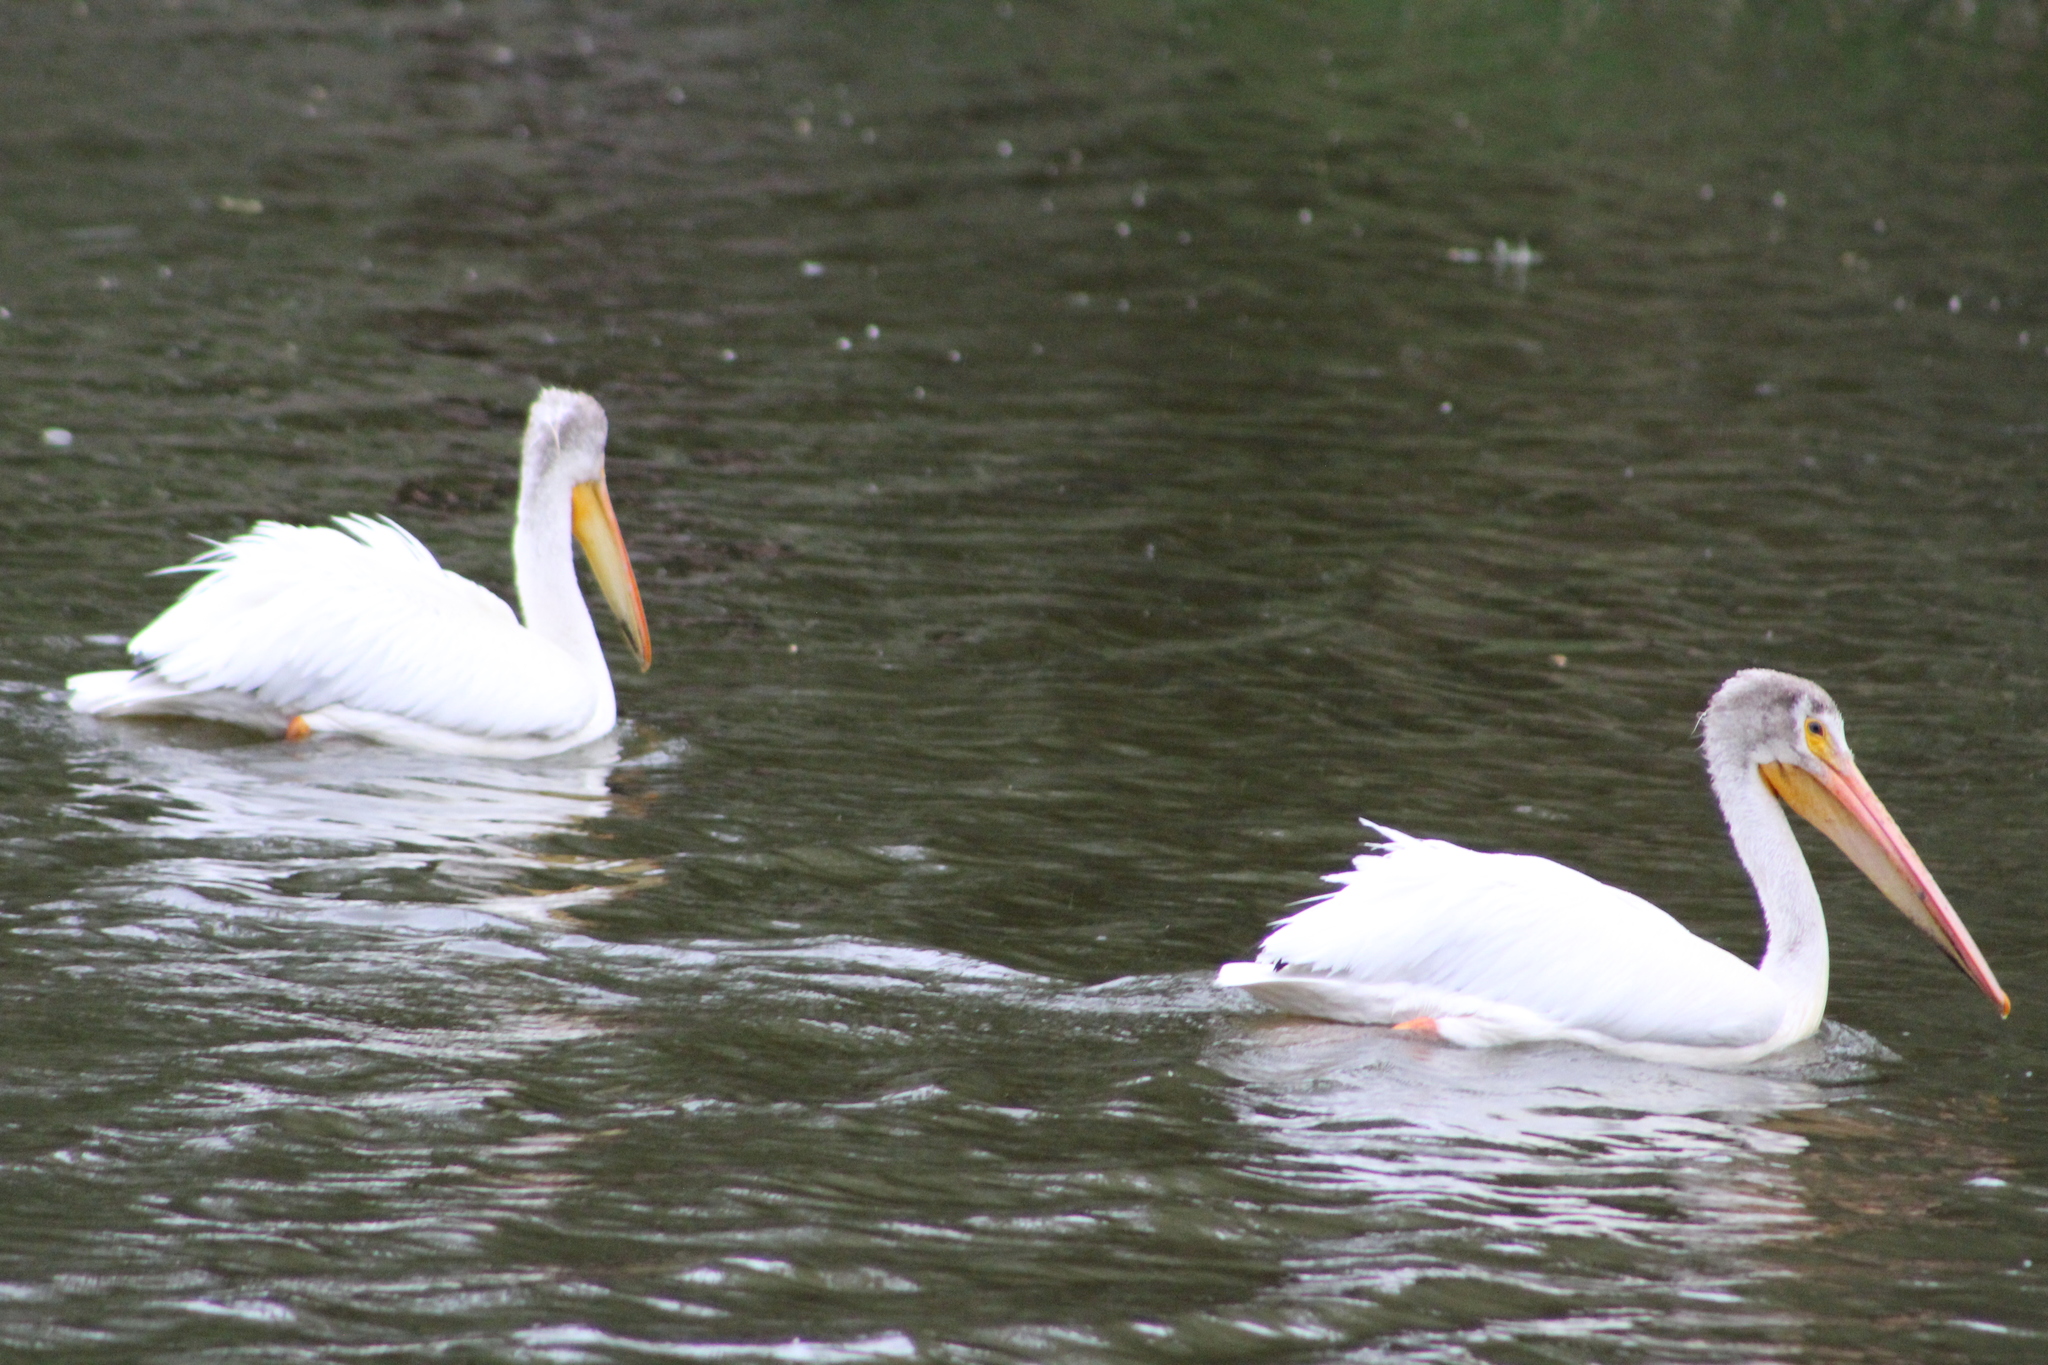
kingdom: Animalia
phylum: Chordata
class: Aves
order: Pelecaniformes
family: Pelecanidae
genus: Pelecanus
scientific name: Pelecanus erythrorhynchos
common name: American white pelican
